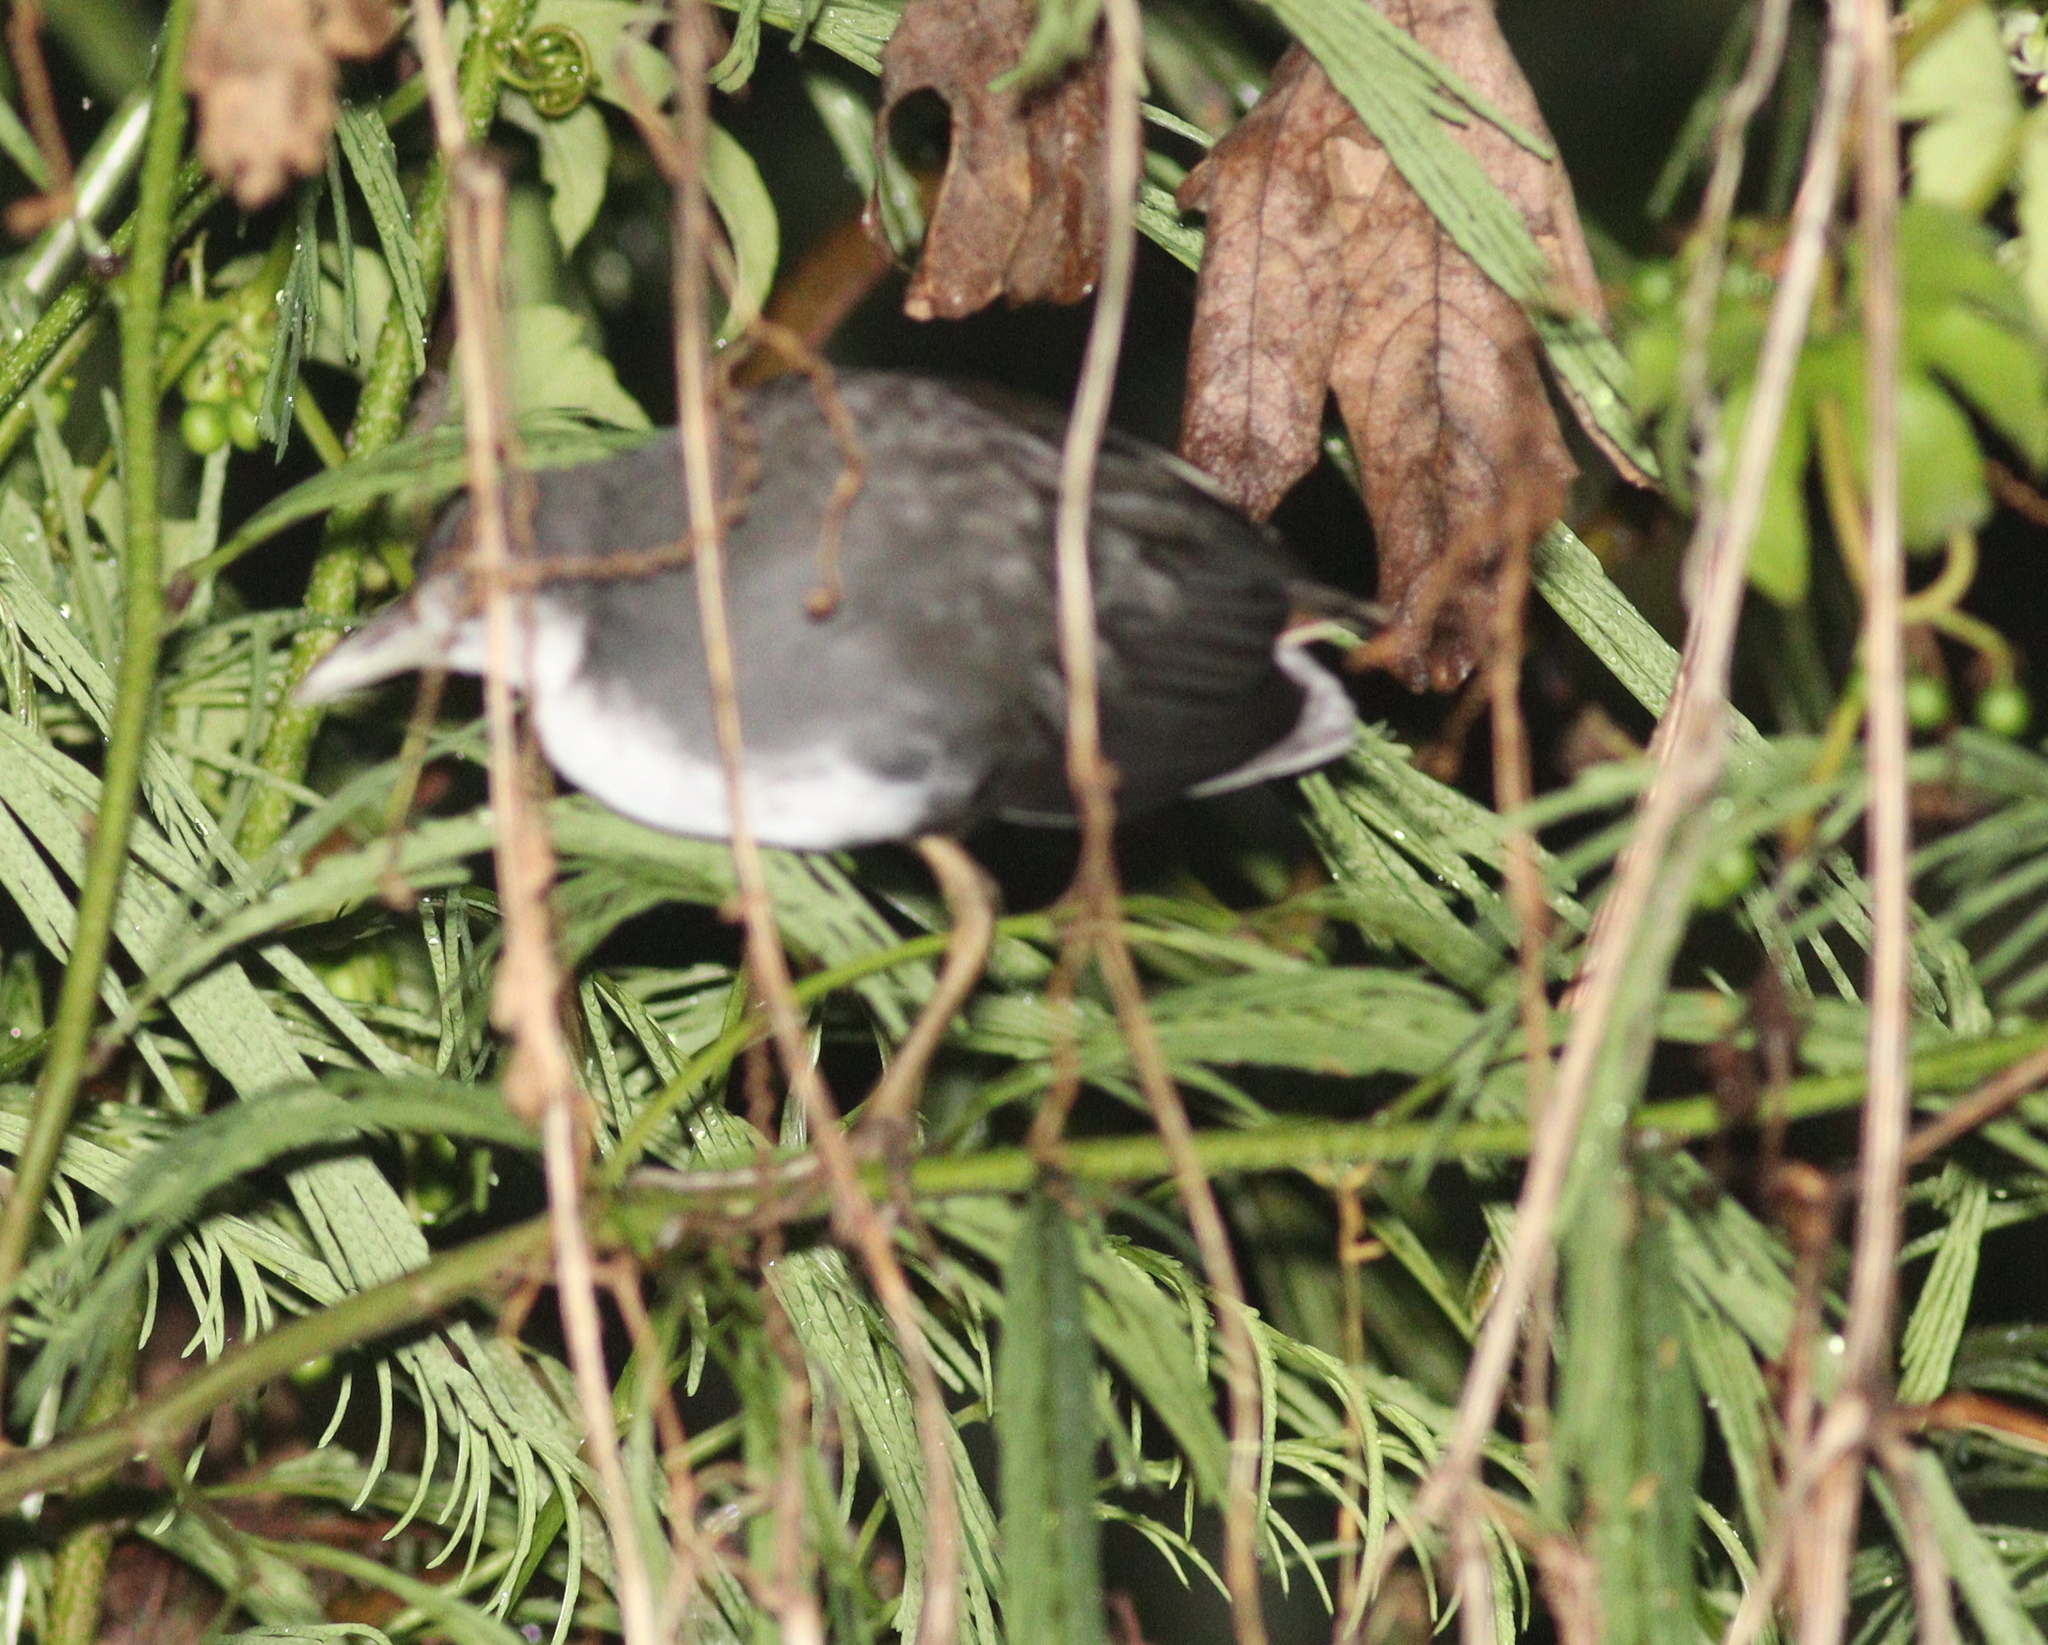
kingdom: Animalia
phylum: Chordata
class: Aves
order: Gruiformes
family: Rallidae
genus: Amaurornis
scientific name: Amaurornis phoenicurus
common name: White-breasted waterhen
